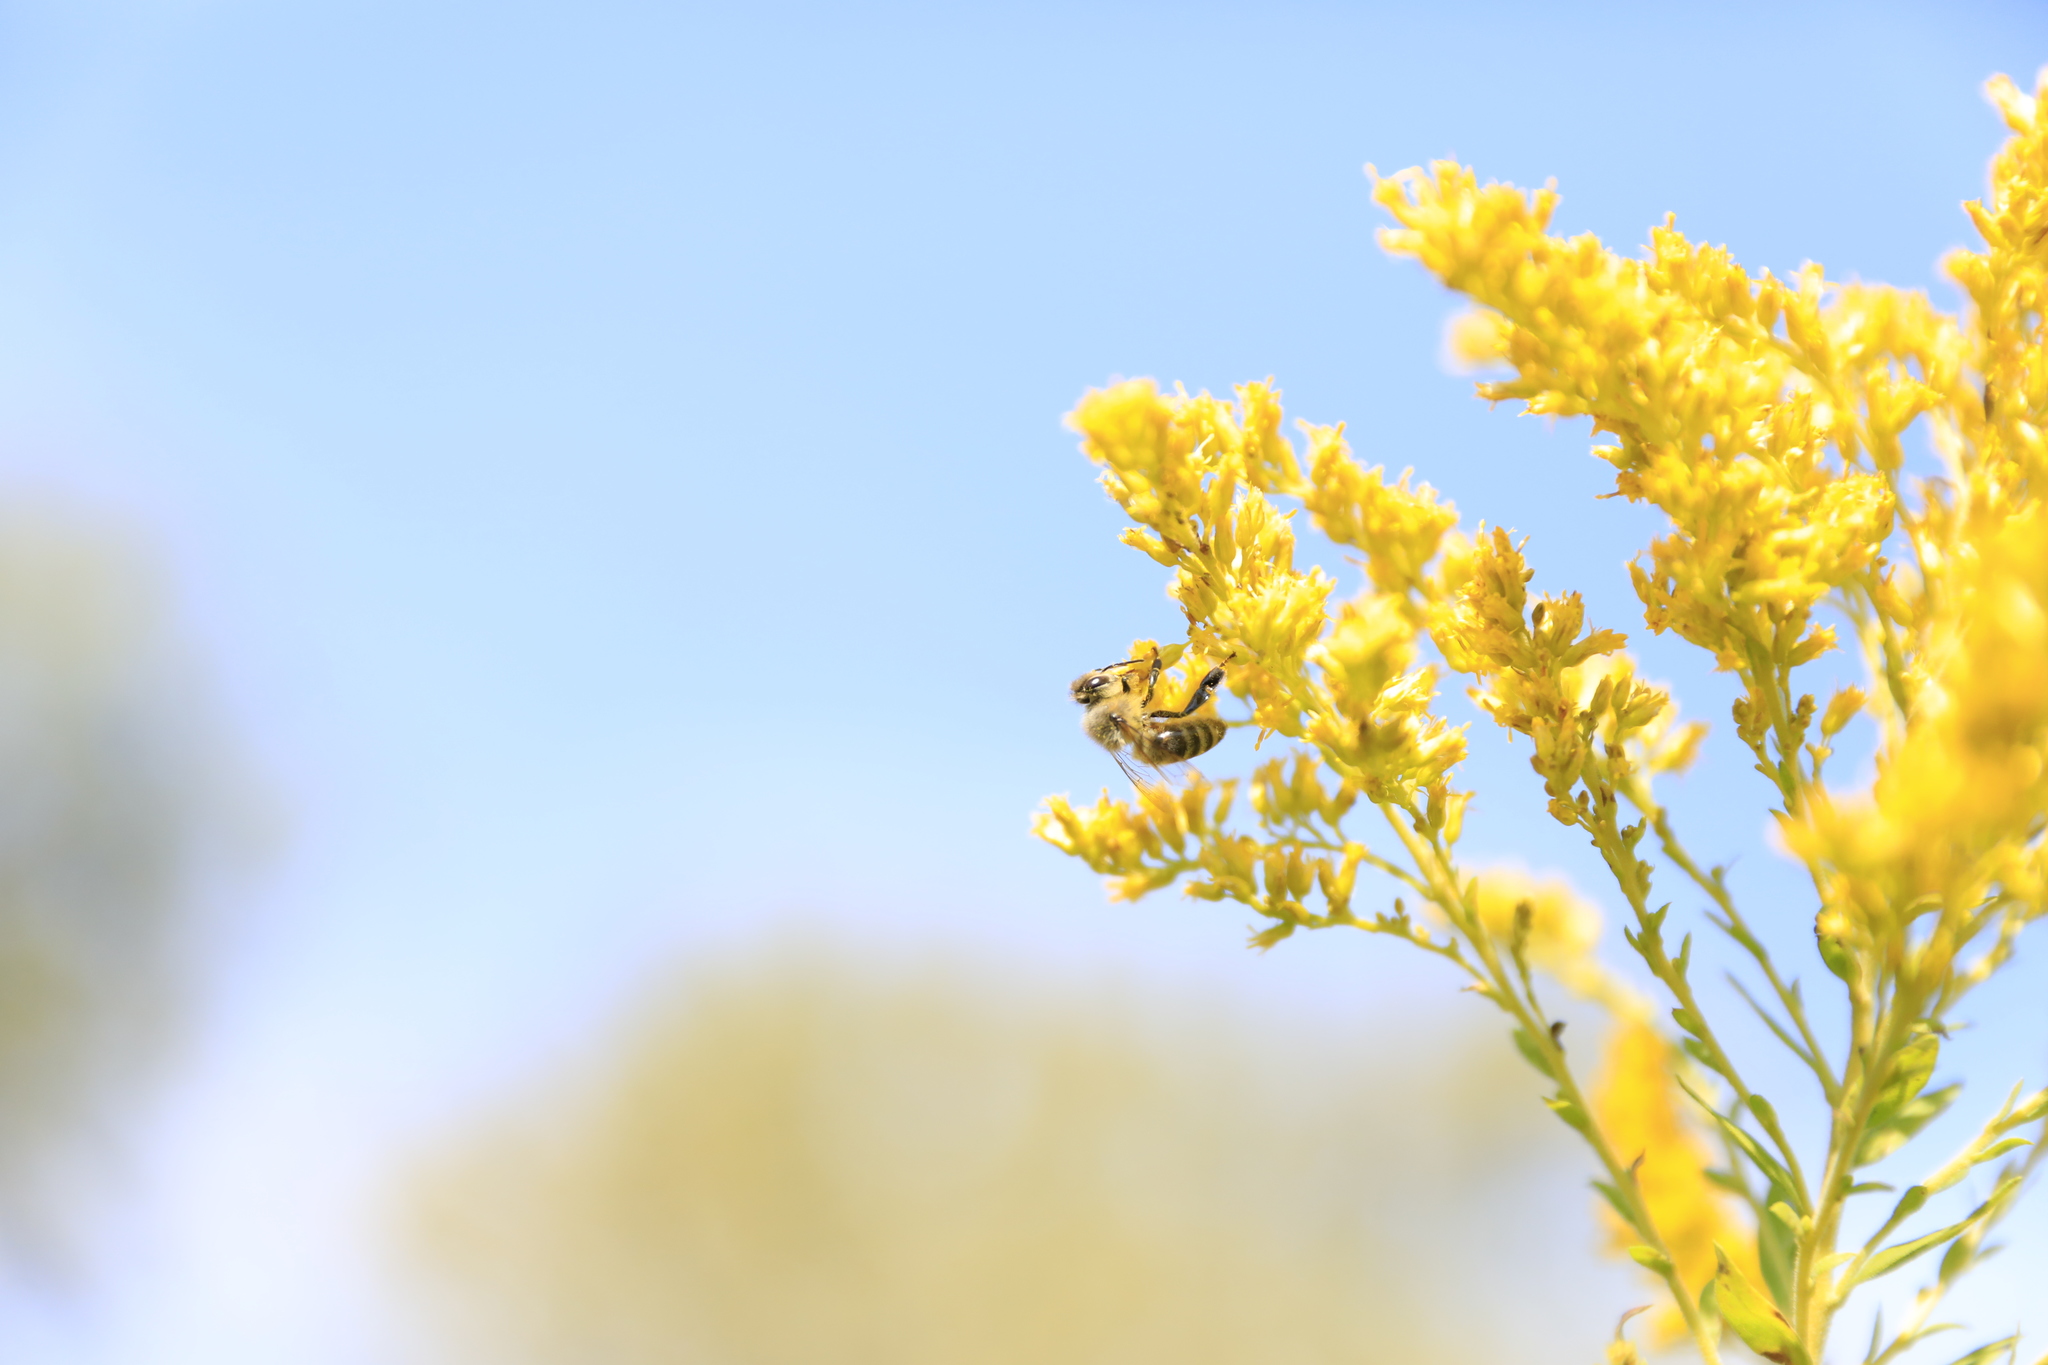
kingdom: Animalia
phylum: Arthropoda
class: Insecta
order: Hymenoptera
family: Apidae
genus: Apis
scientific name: Apis mellifera
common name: Honey bee
